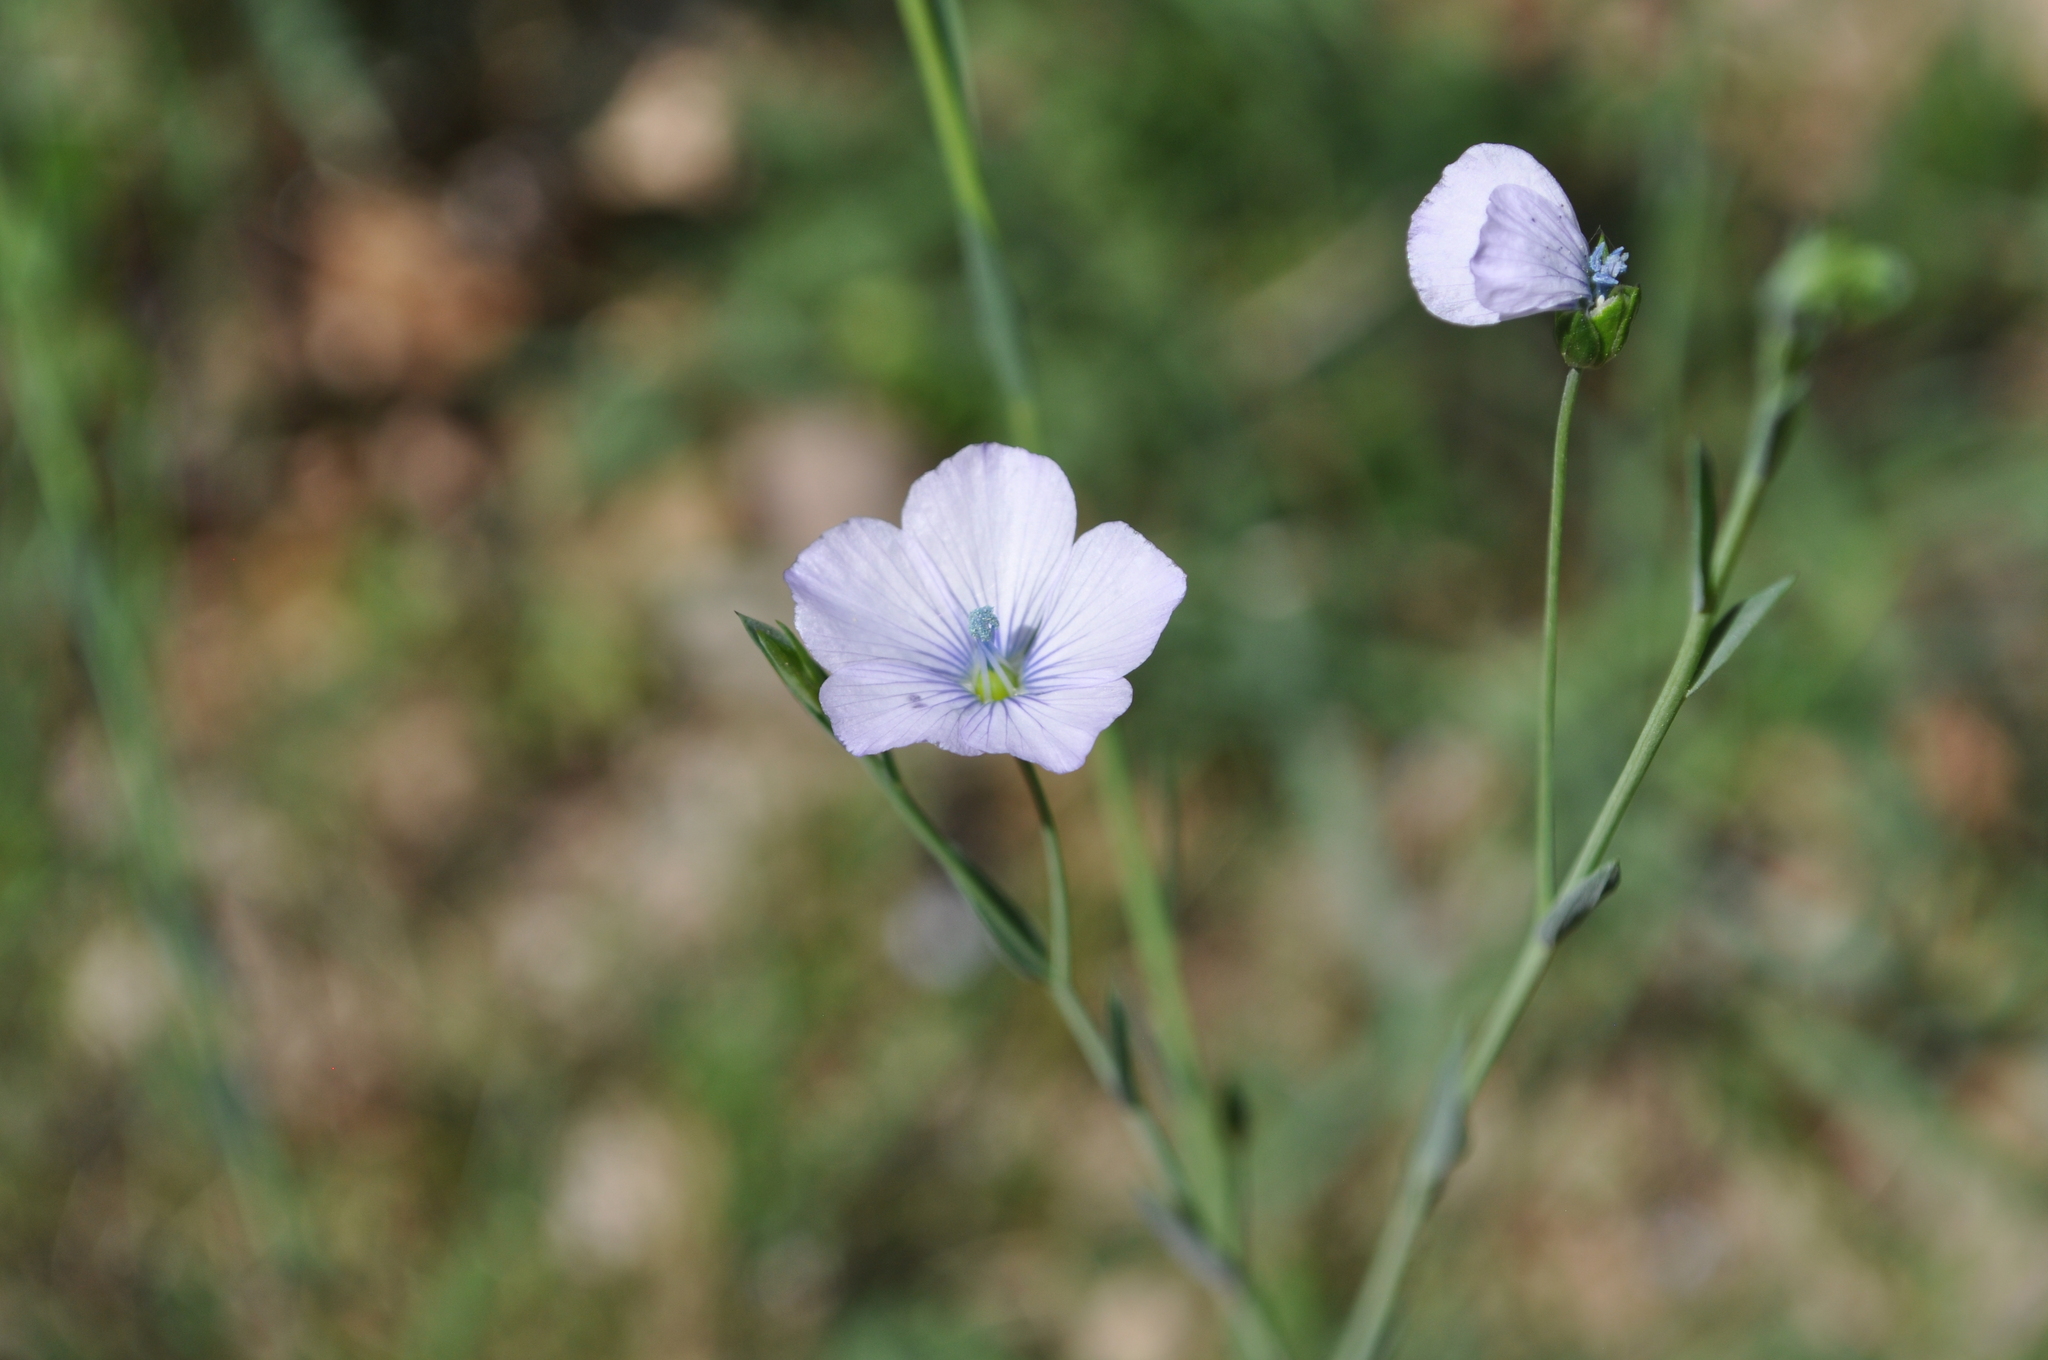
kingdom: Plantae
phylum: Tracheophyta
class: Magnoliopsida
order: Malpighiales
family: Linaceae
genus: Linum
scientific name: Linum bienne
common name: Pale flax
